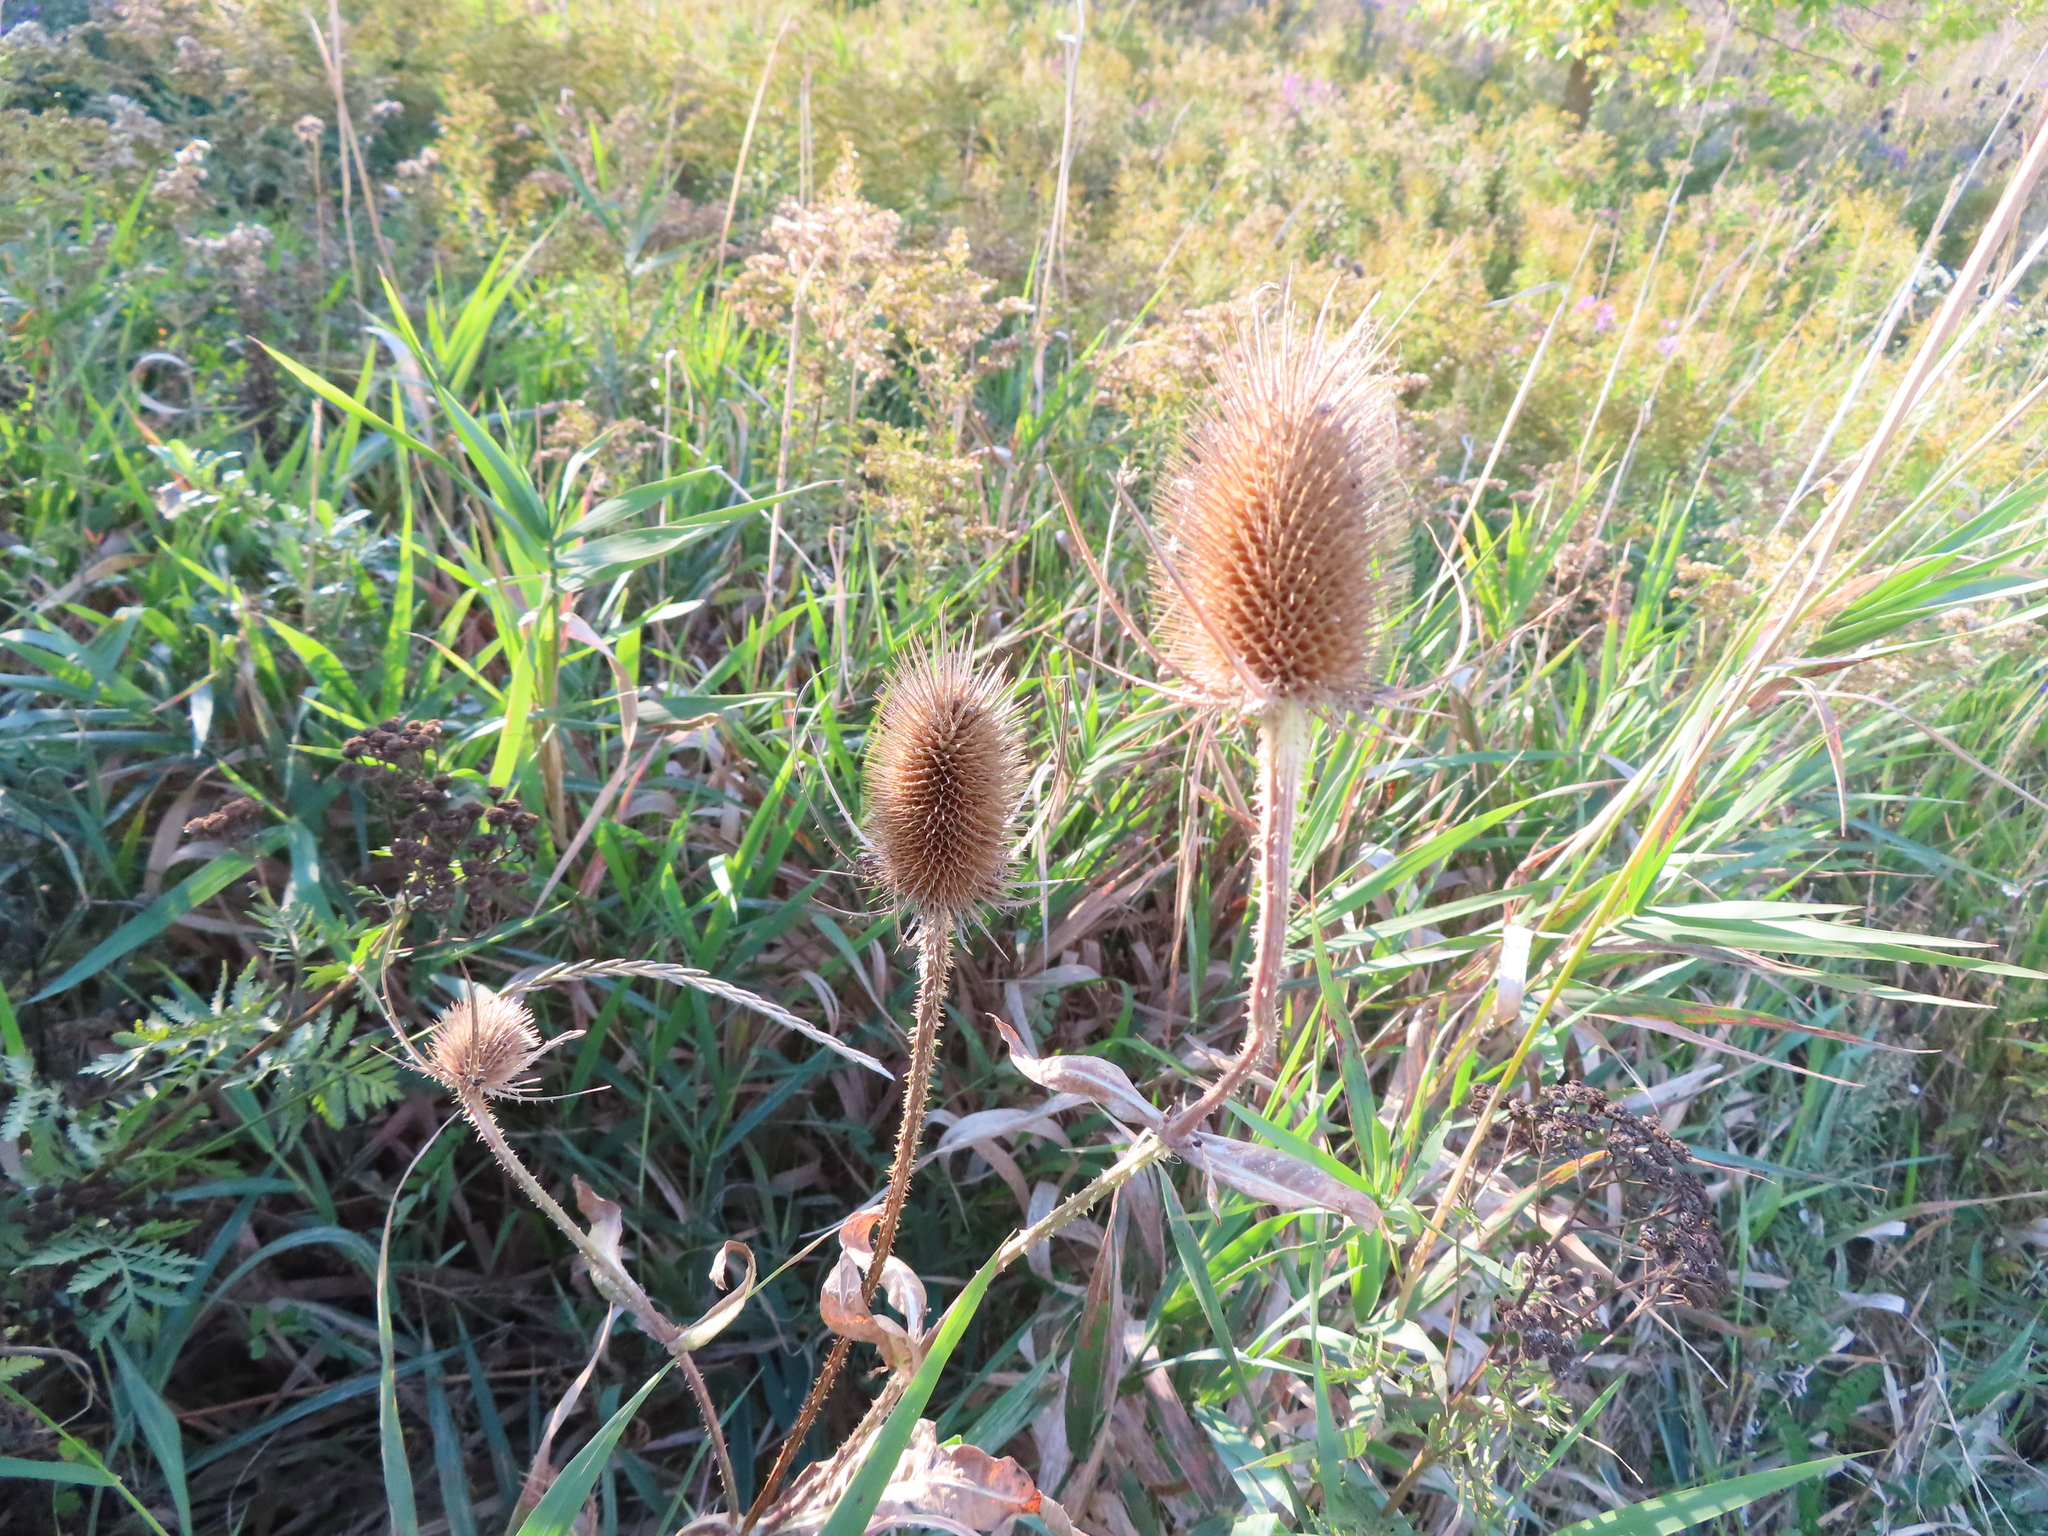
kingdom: Plantae
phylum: Tracheophyta
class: Magnoliopsida
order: Dipsacales
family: Caprifoliaceae
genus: Dipsacus
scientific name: Dipsacus fullonum
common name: Teasel
